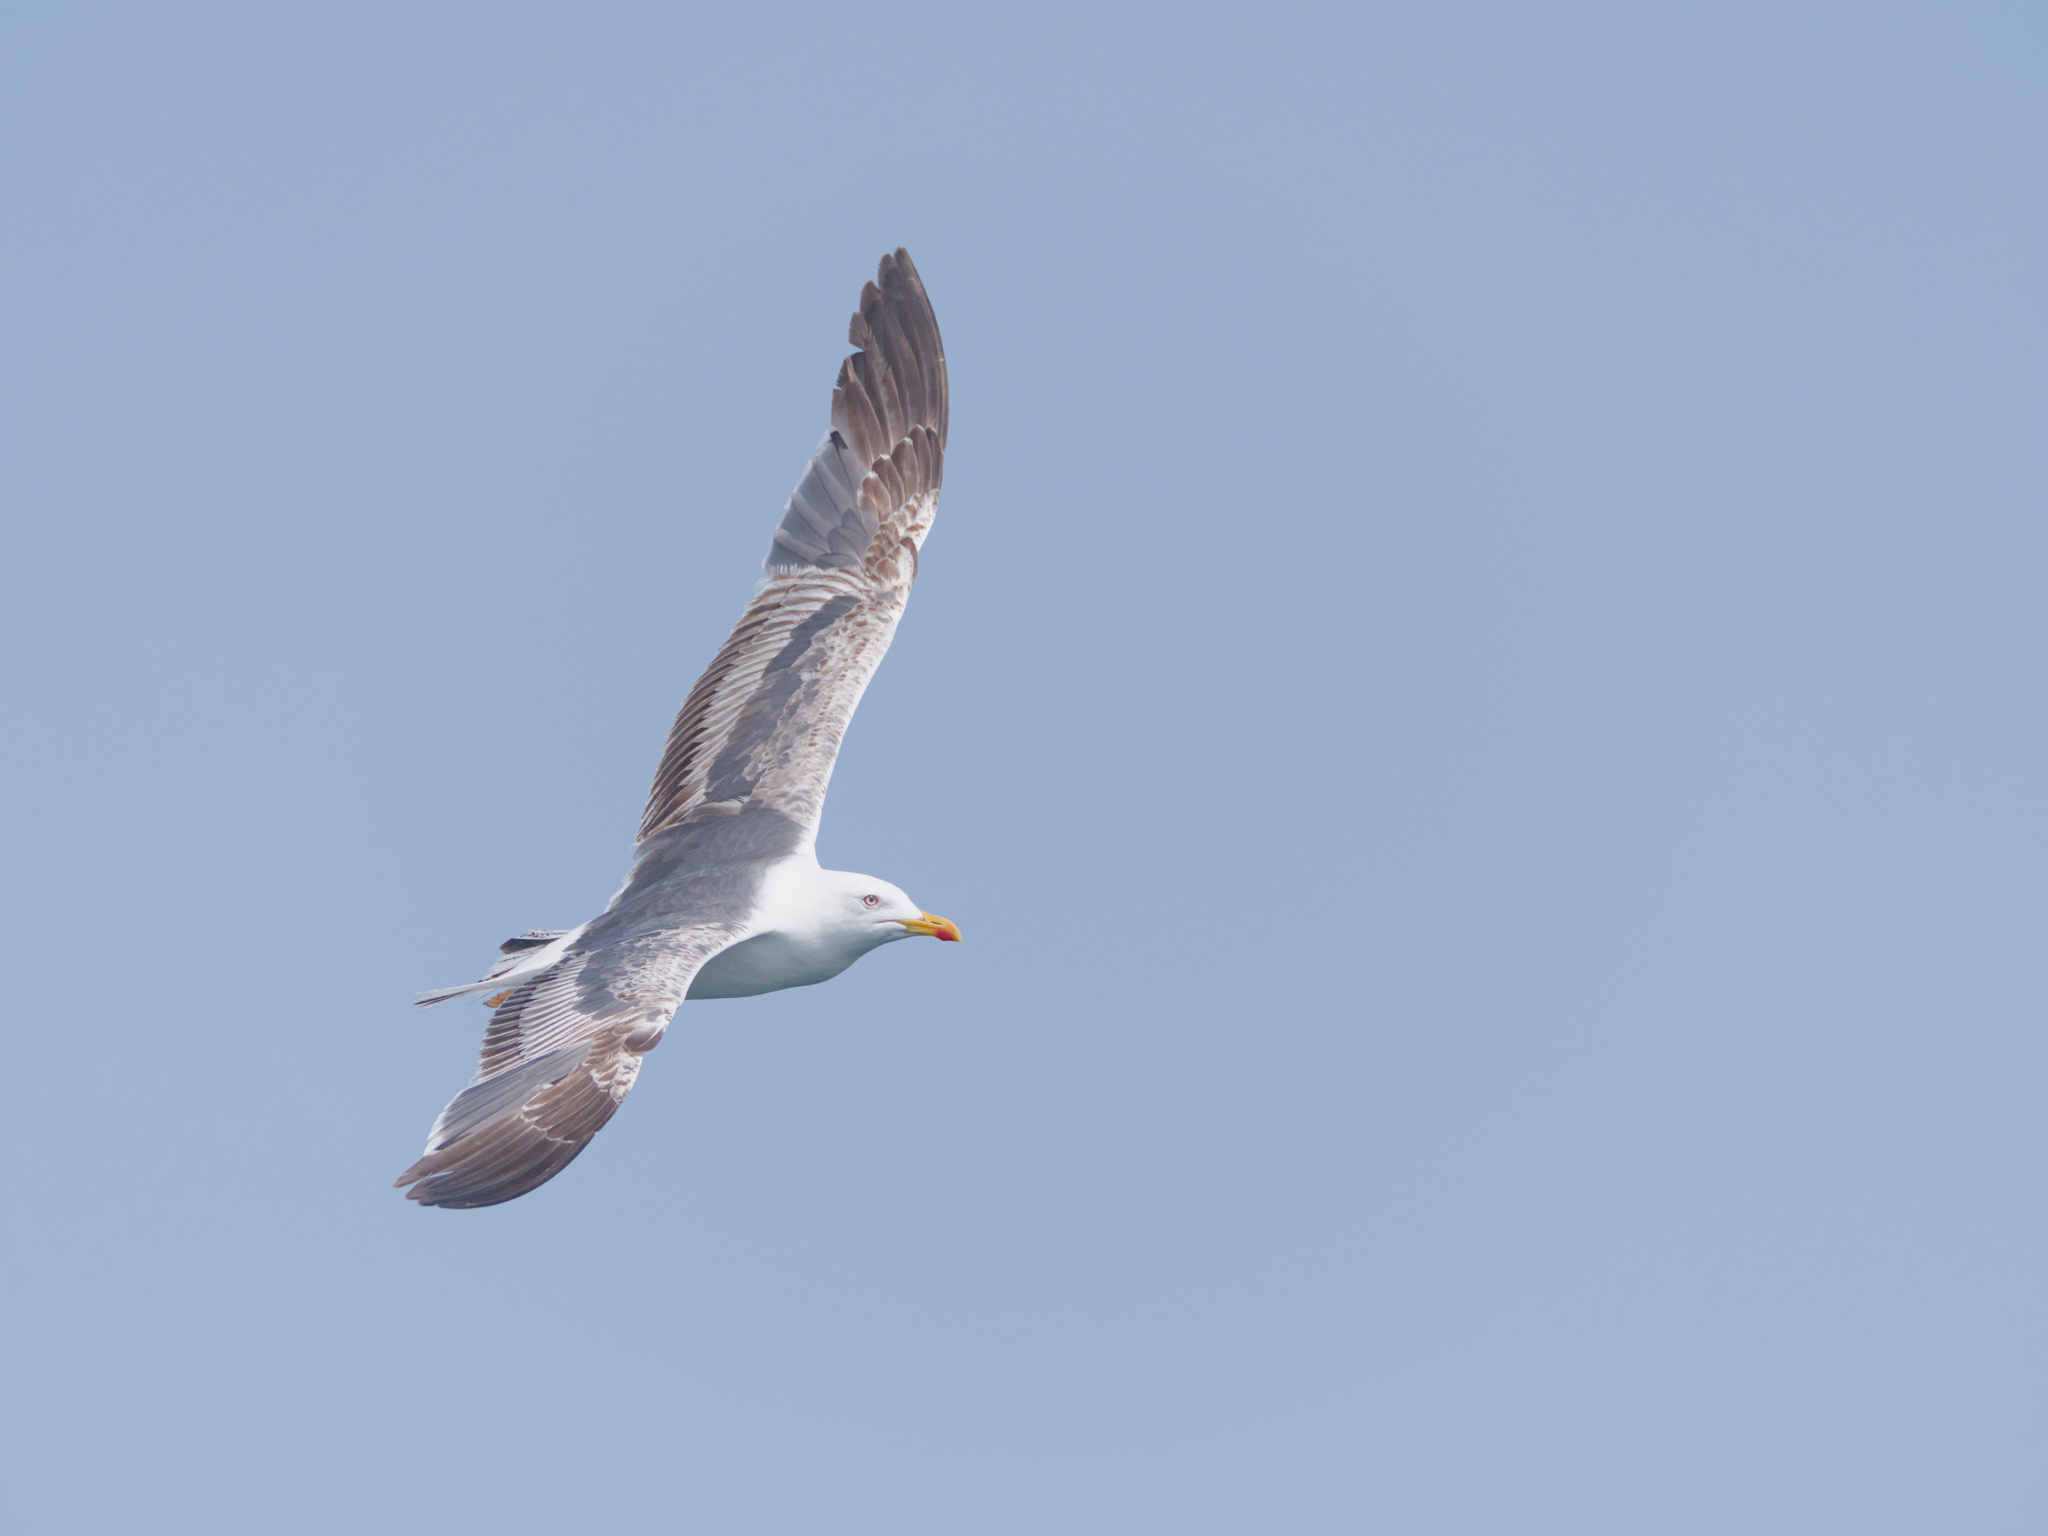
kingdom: Animalia
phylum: Chordata
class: Aves
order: Charadriiformes
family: Laridae
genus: Larus
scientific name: Larus fuscus
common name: Lesser black-backed gull
